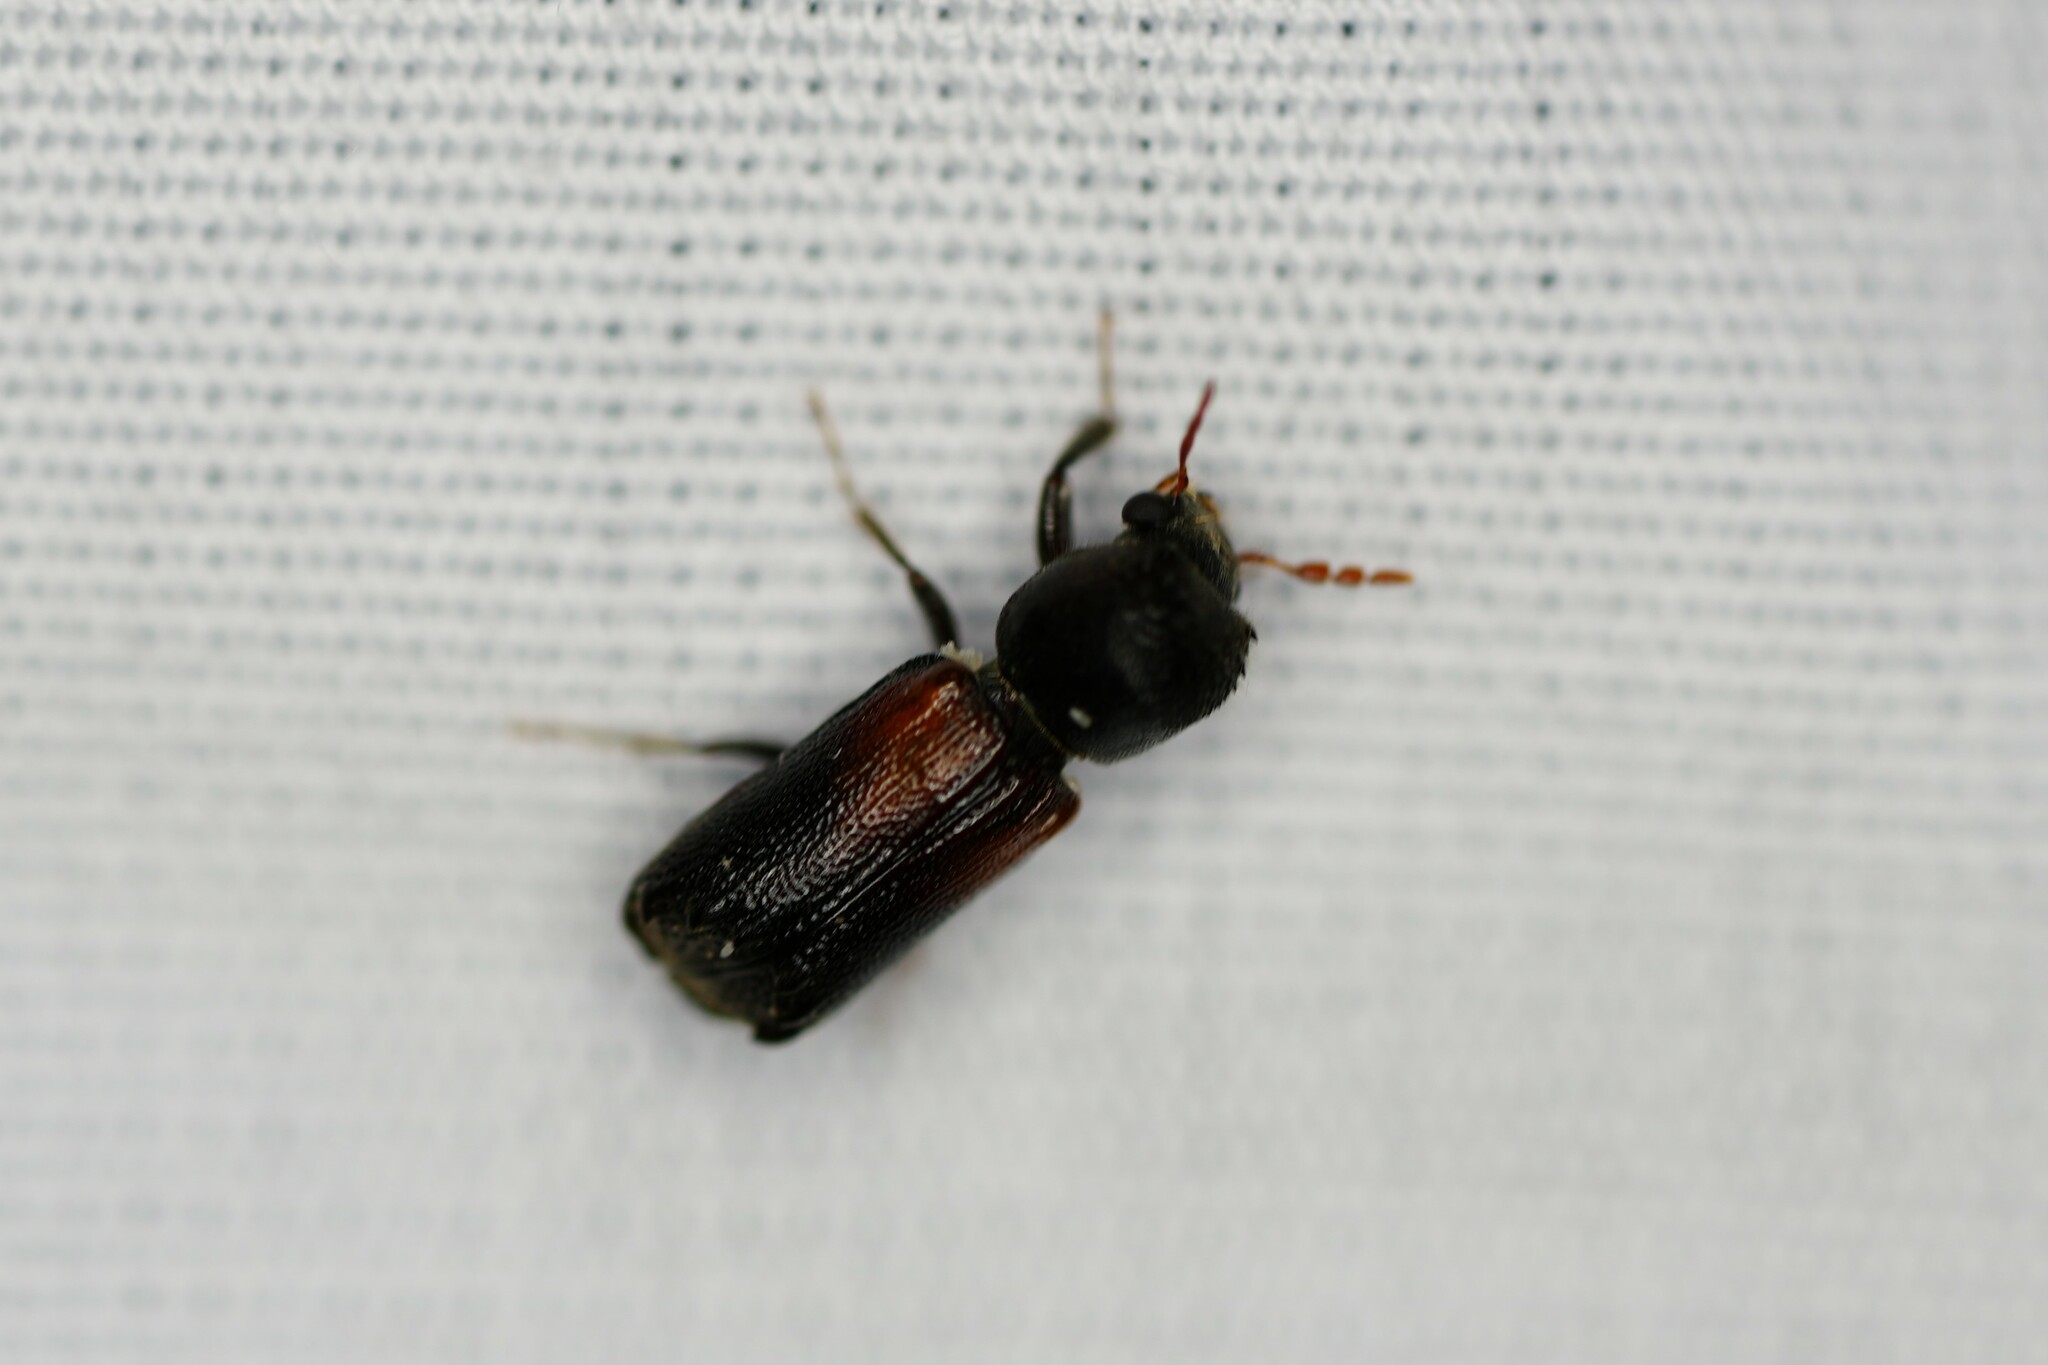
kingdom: Animalia
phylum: Arthropoda
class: Insecta
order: Coleoptera
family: Bostrichidae
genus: Xylobiops
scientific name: Xylobiops basilaris
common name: Red-shouldered bostrichid
